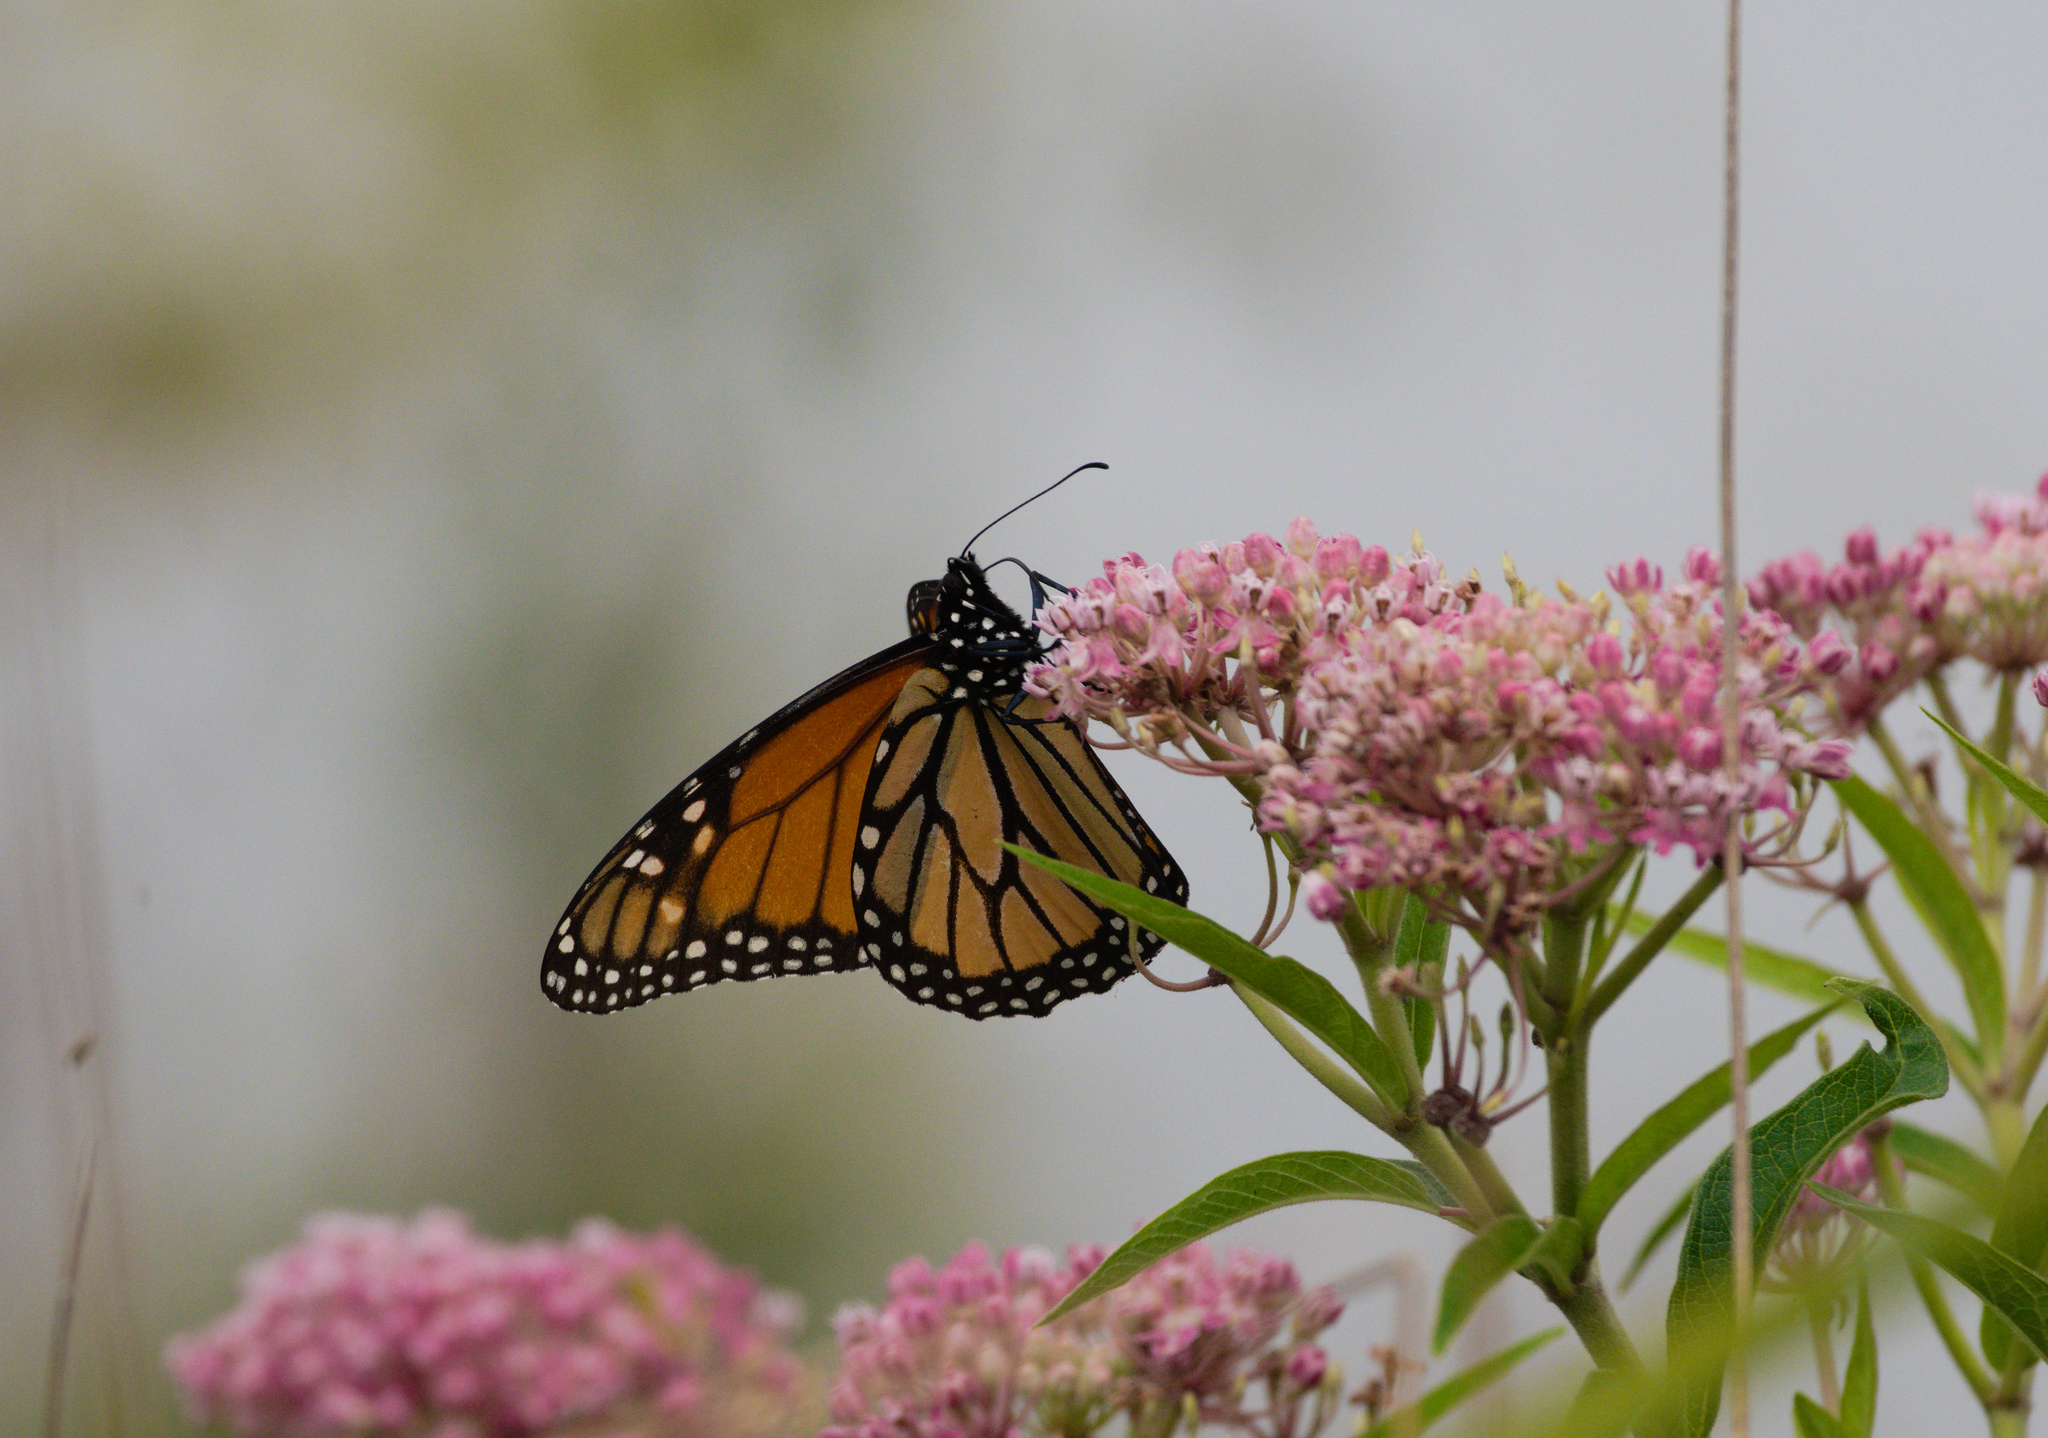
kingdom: Animalia
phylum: Arthropoda
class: Insecta
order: Lepidoptera
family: Nymphalidae
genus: Danaus
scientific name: Danaus plexippus
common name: Monarch
